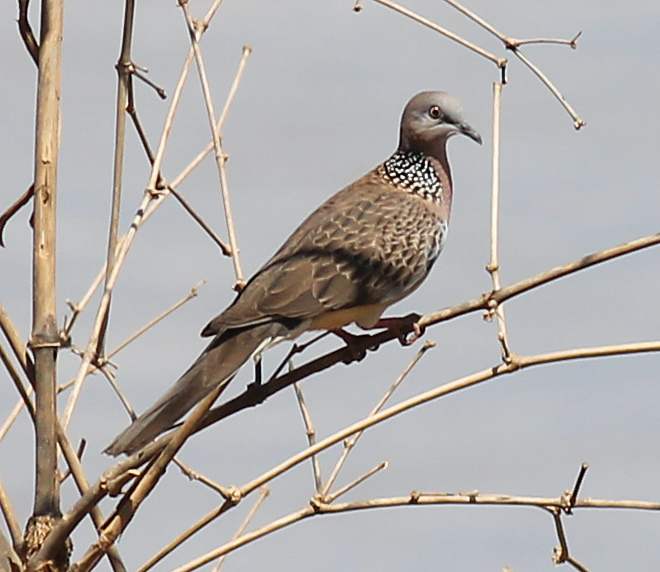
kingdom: Animalia
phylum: Chordata
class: Aves
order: Columbiformes
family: Columbidae
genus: Spilopelia
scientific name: Spilopelia chinensis
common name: Spotted dove
